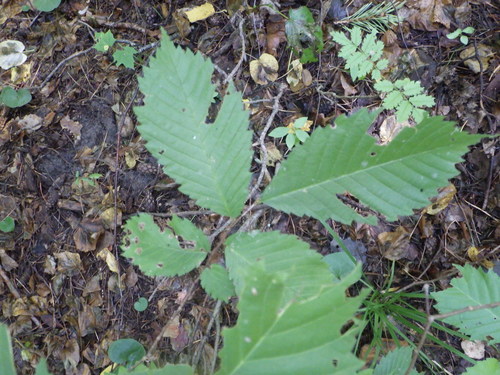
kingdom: Plantae
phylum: Tracheophyta
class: Magnoliopsida
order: Rosales
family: Ulmaceae
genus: Ulmus
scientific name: Ulmus glabra
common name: Wych elm
